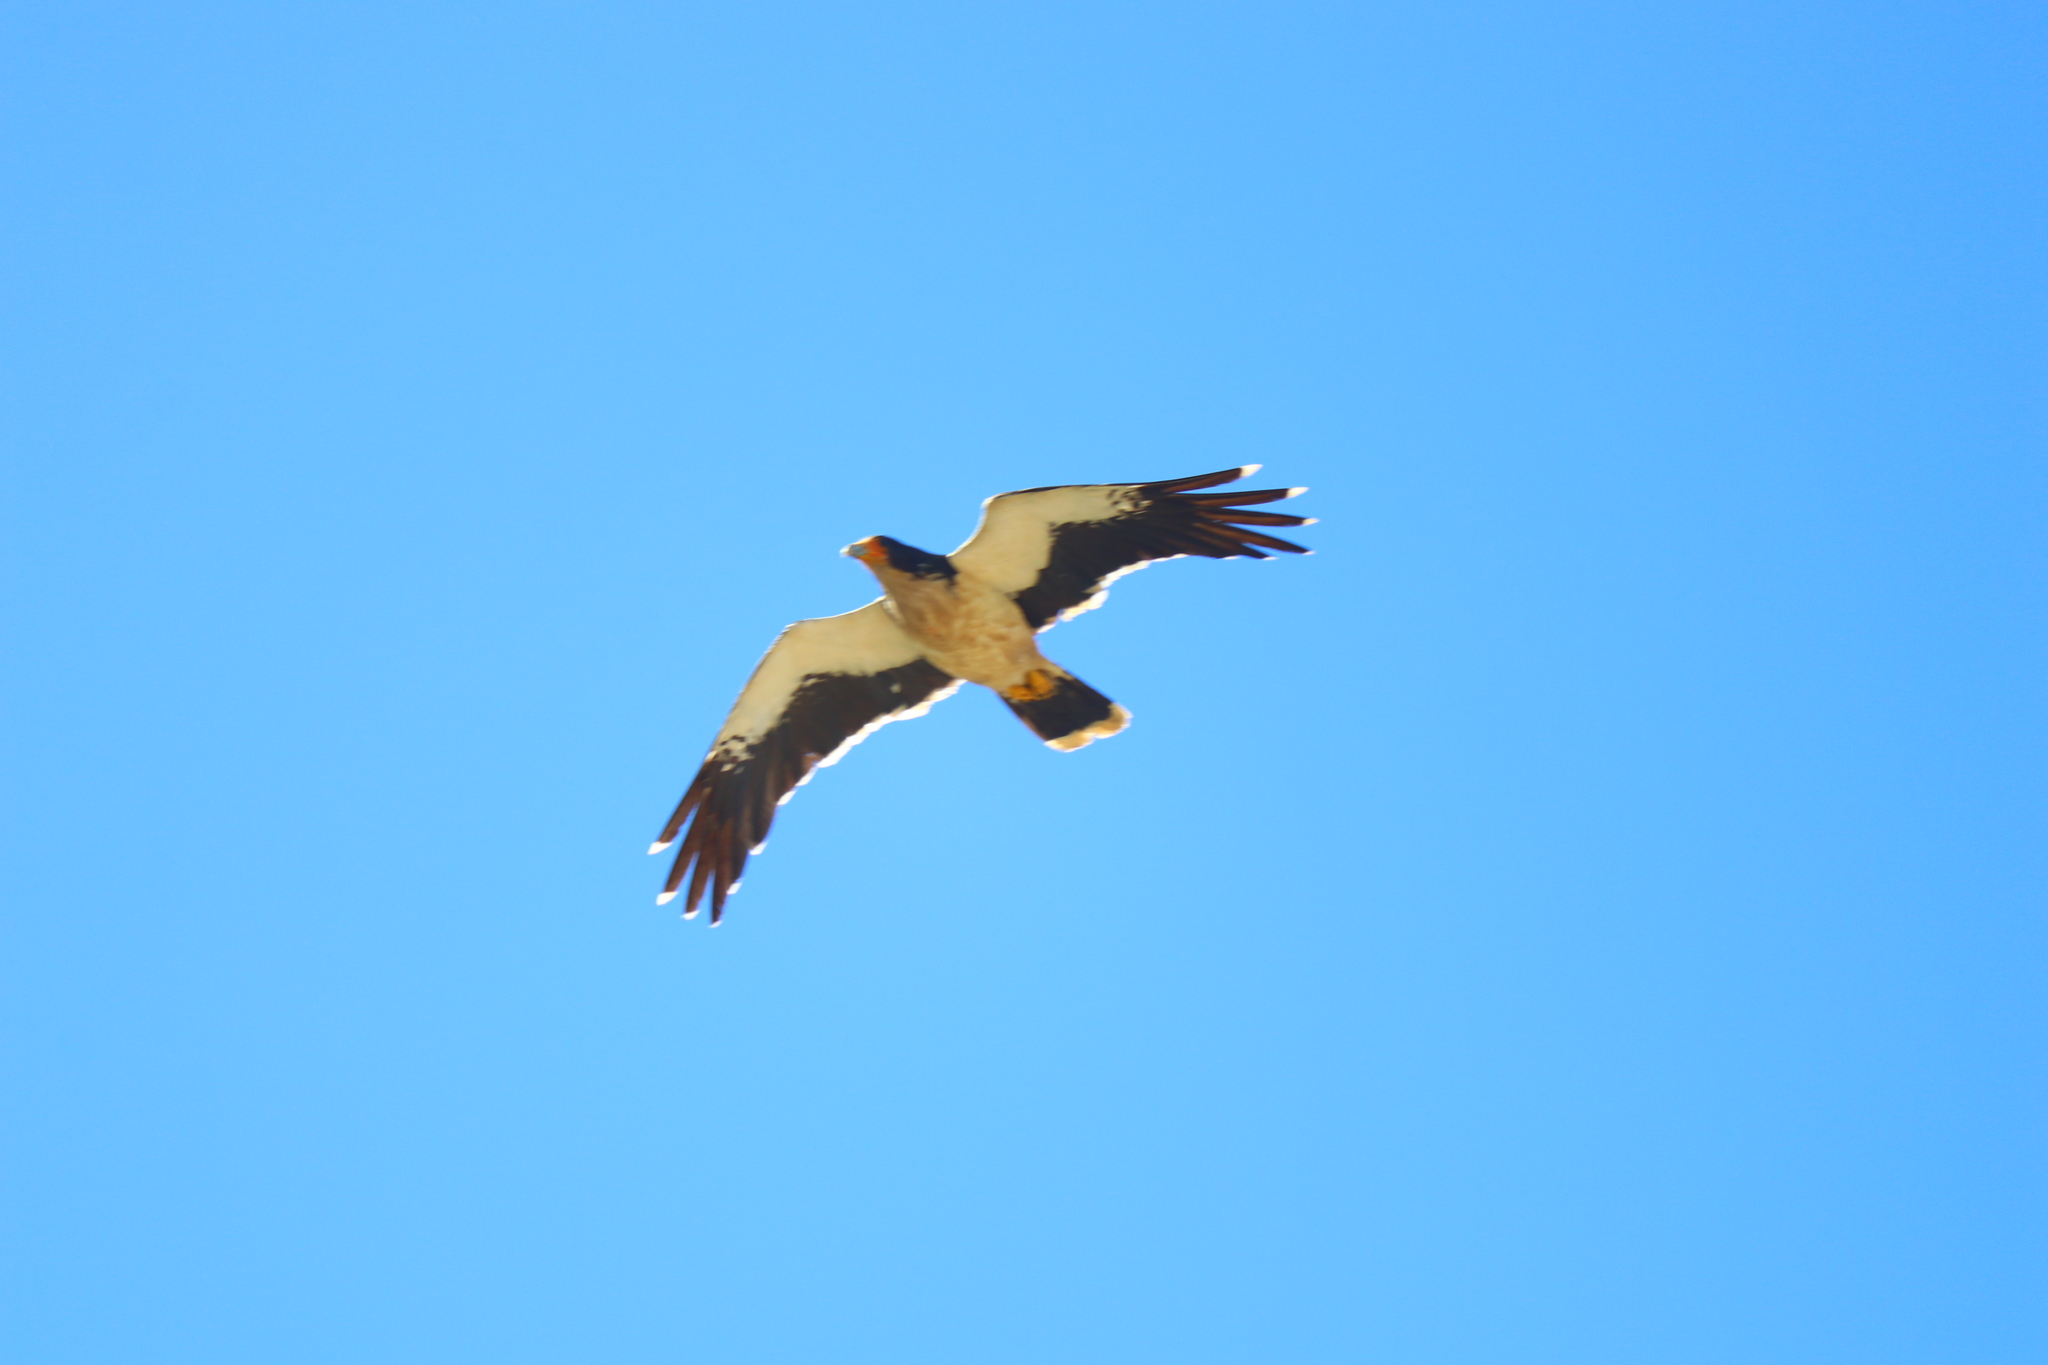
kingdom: Animalia
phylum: Chordata
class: Aves
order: Falconiformes
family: Falconidae
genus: Daptrius
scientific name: Daptrius
